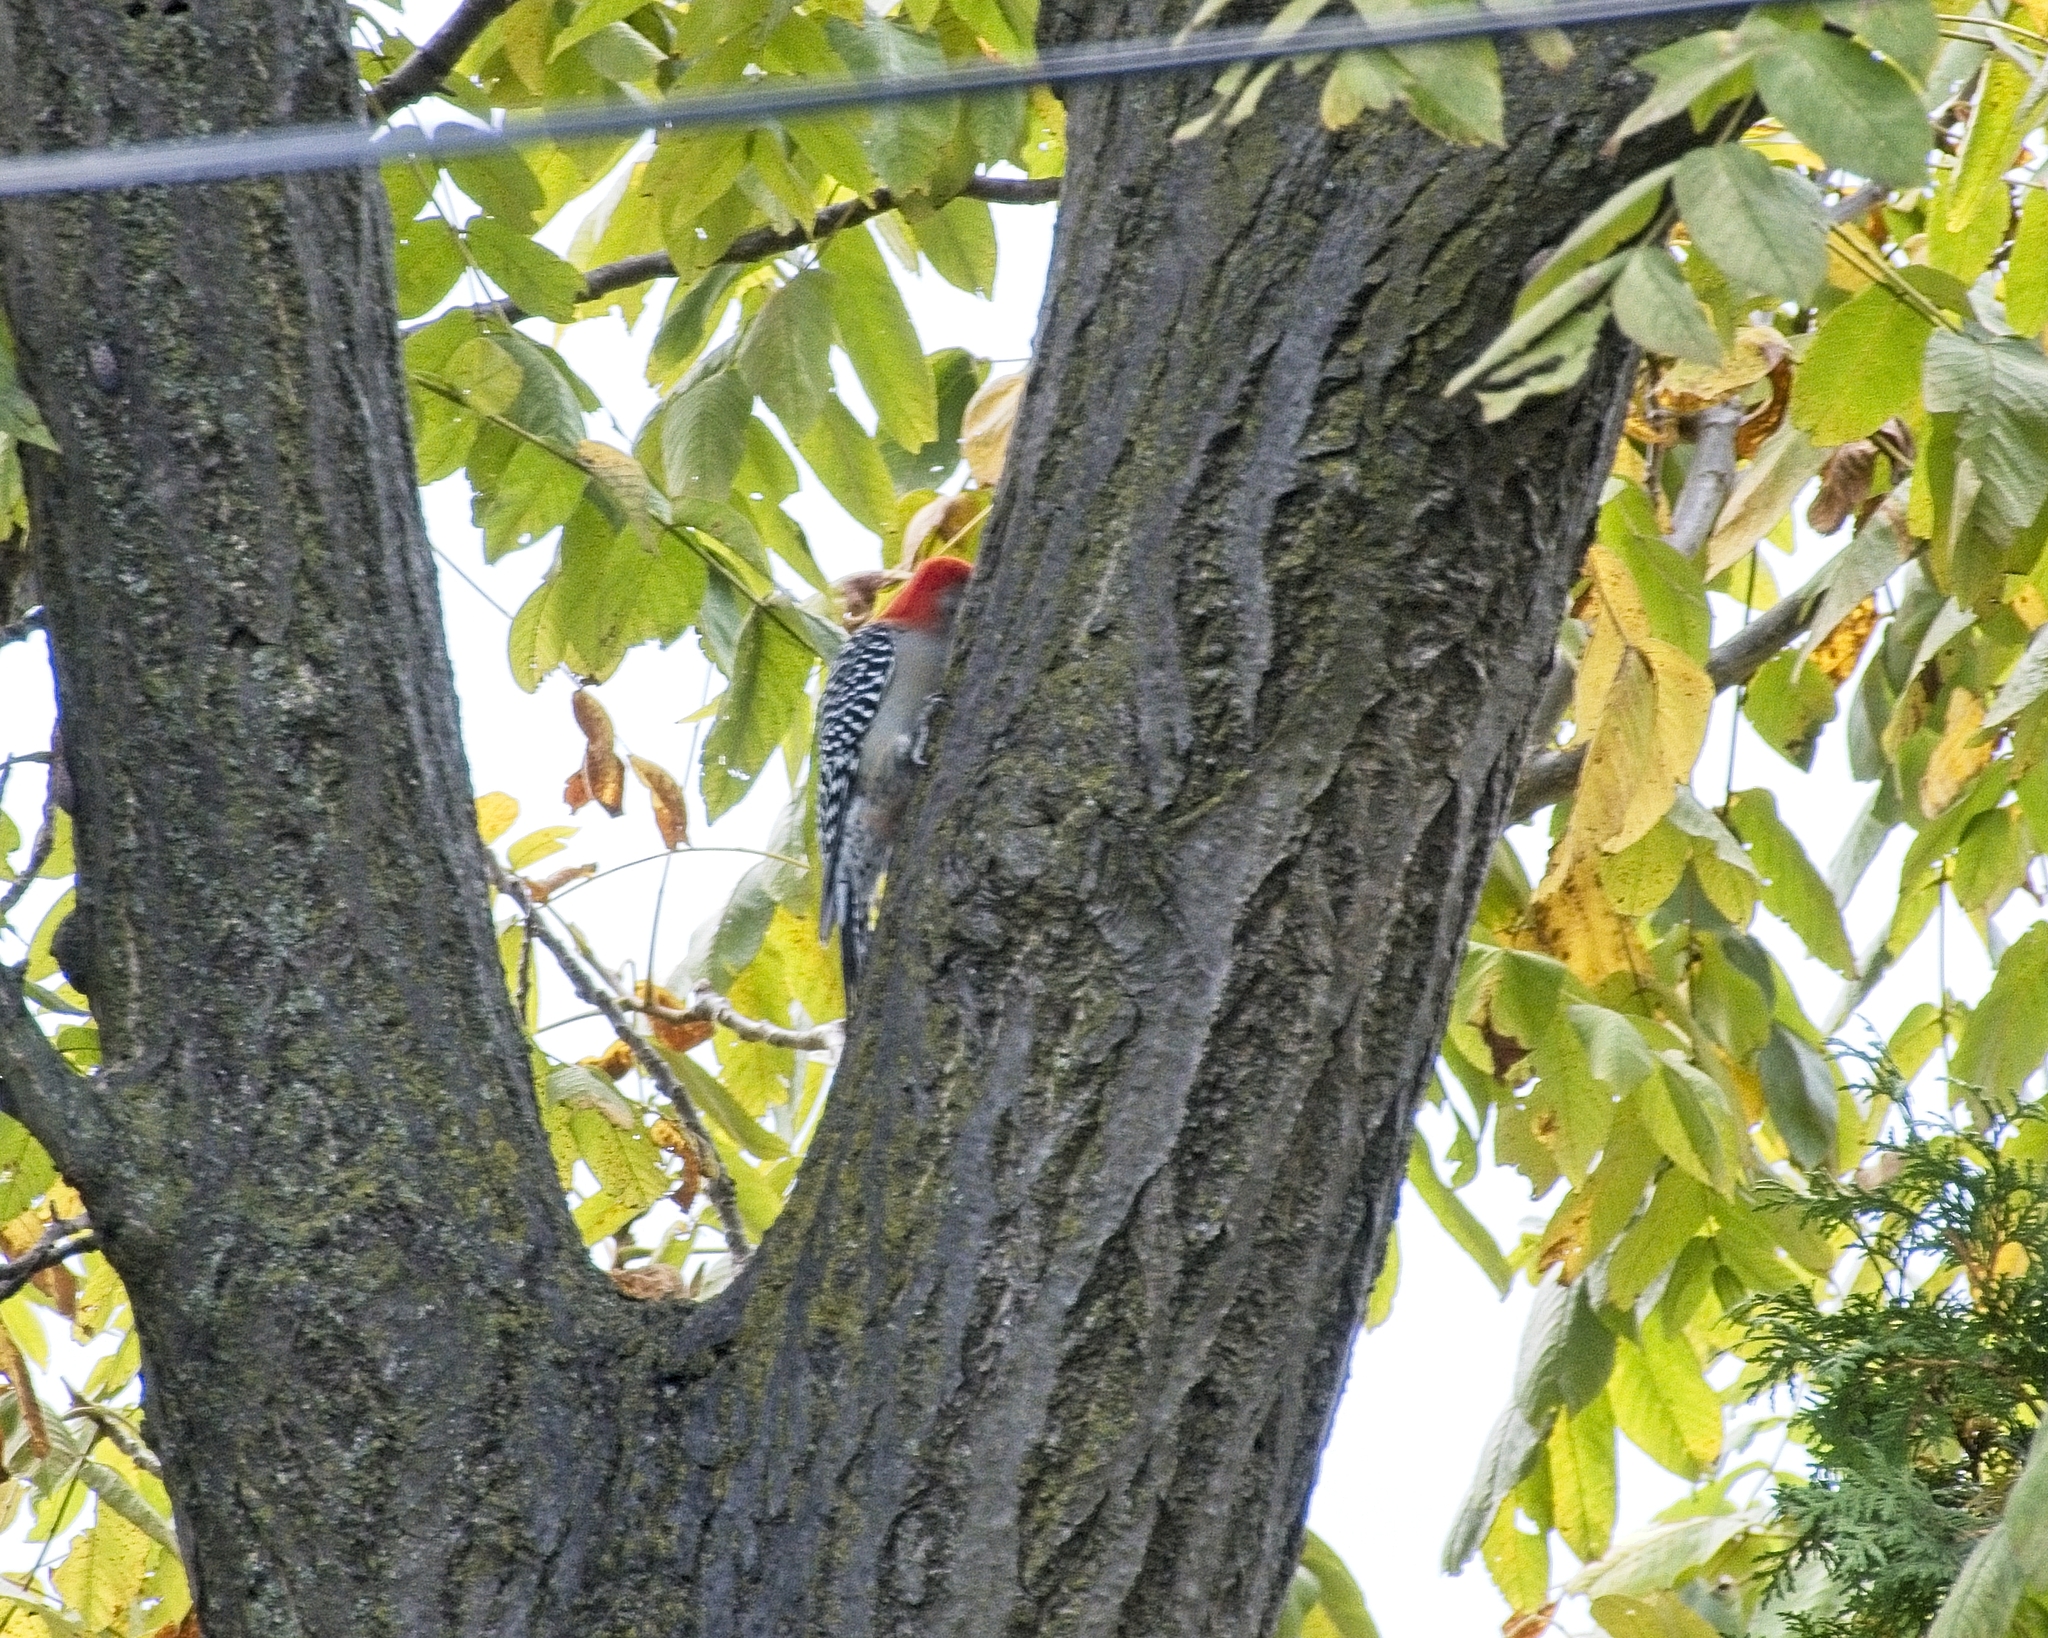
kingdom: Animalia
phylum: Chordata
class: Aves
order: Piciformes
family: Picidae
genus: Melanerpes
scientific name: Melanerpes carolinus
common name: Red-bellied woodpecker
